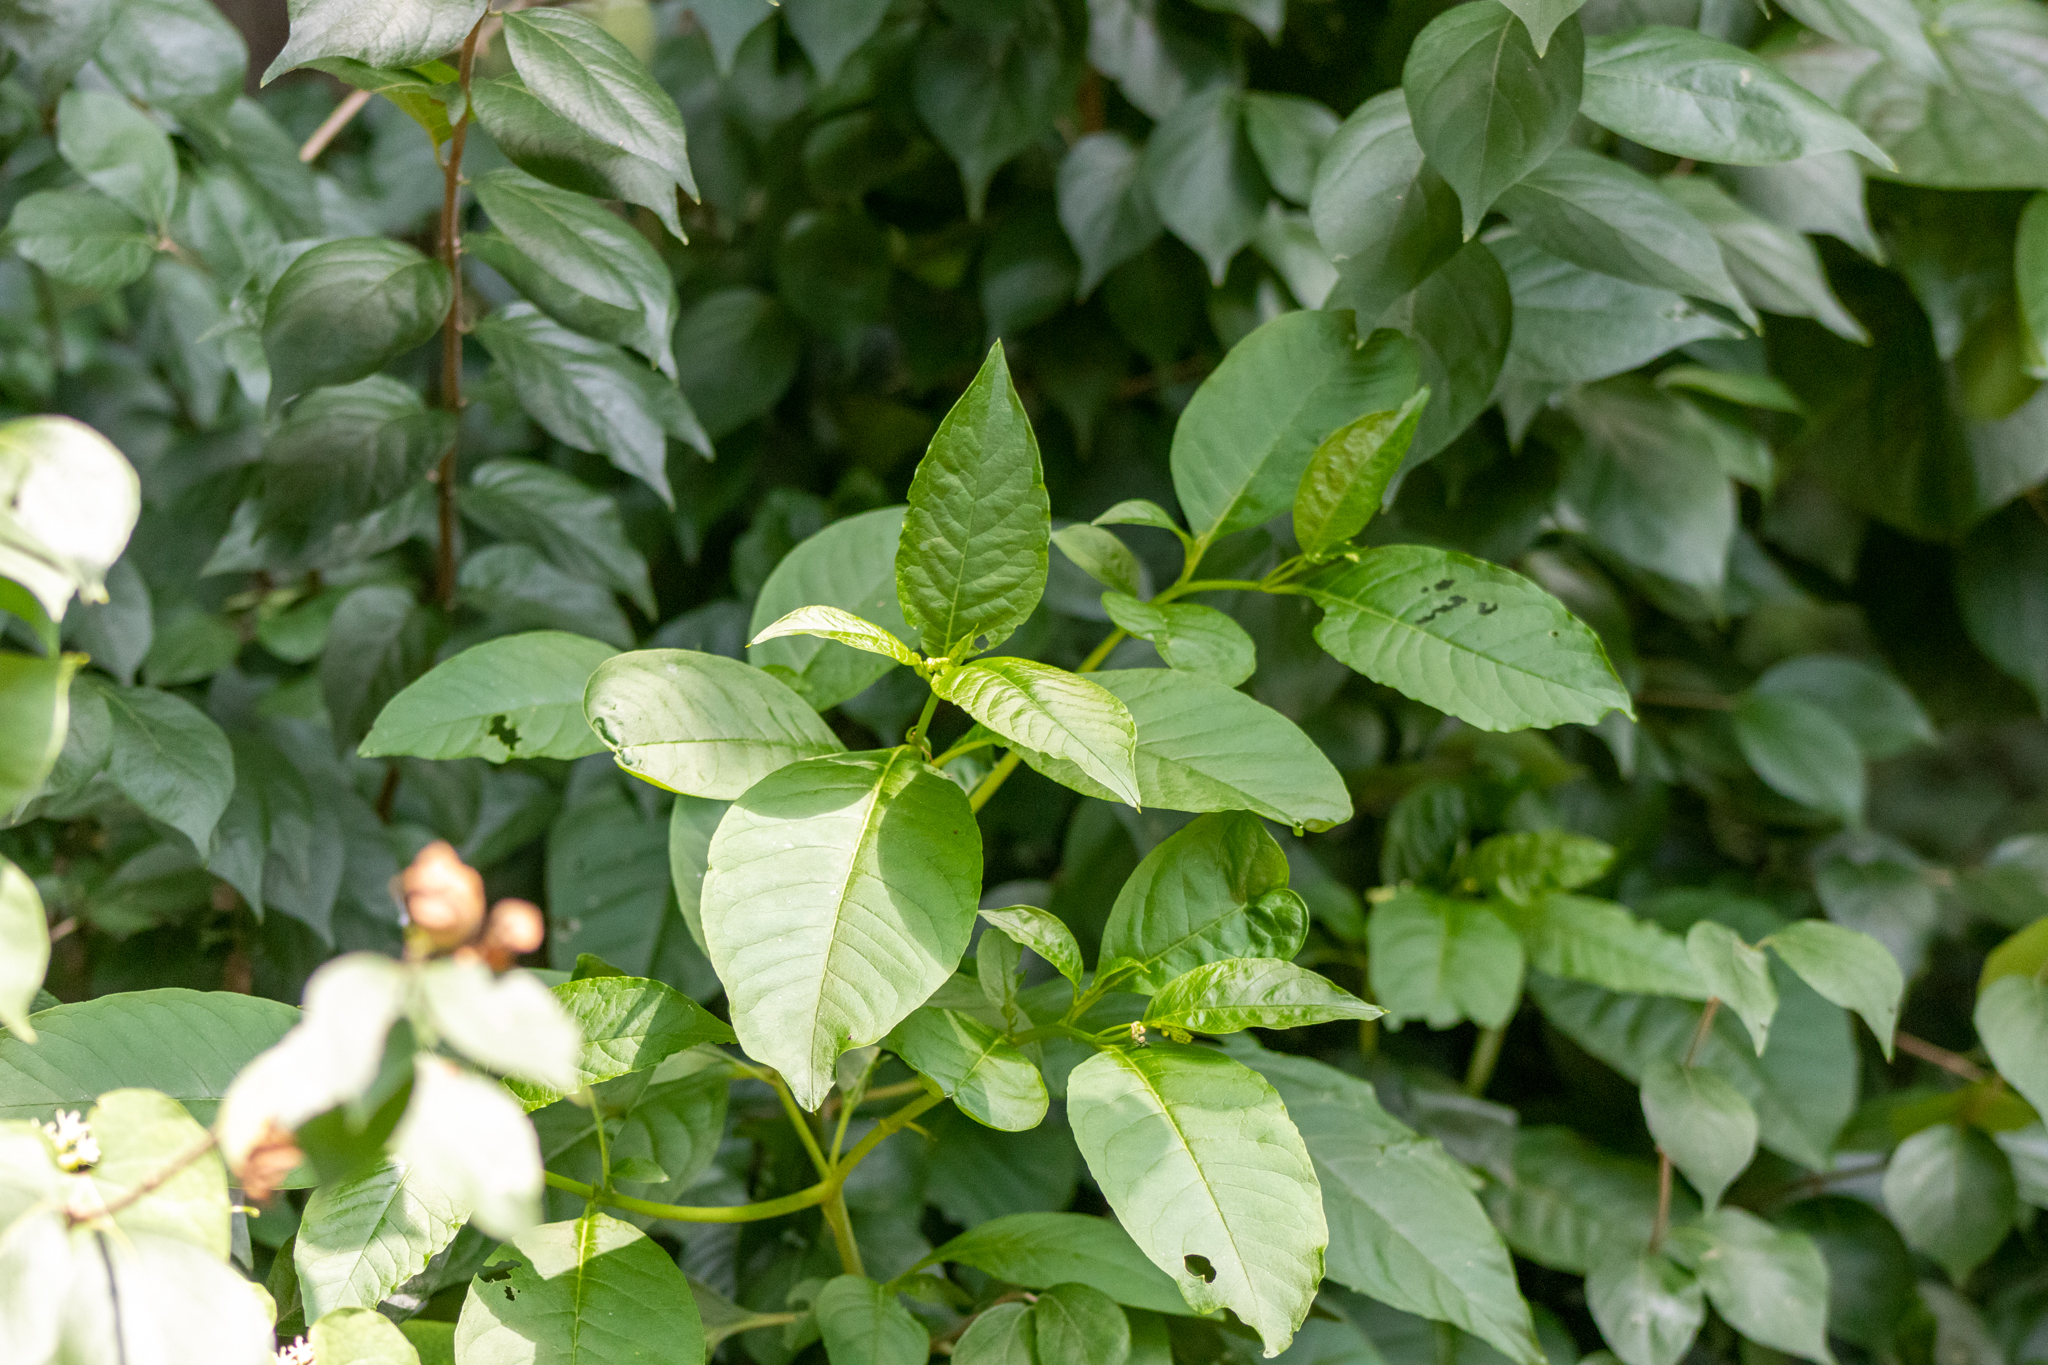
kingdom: Plantae
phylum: Tracheophyta
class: Magnoliopsida
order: Caryophyllales
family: Phytolaccaceae
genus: Phytolacca
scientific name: Phytolacca americana
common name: American pokeweed
